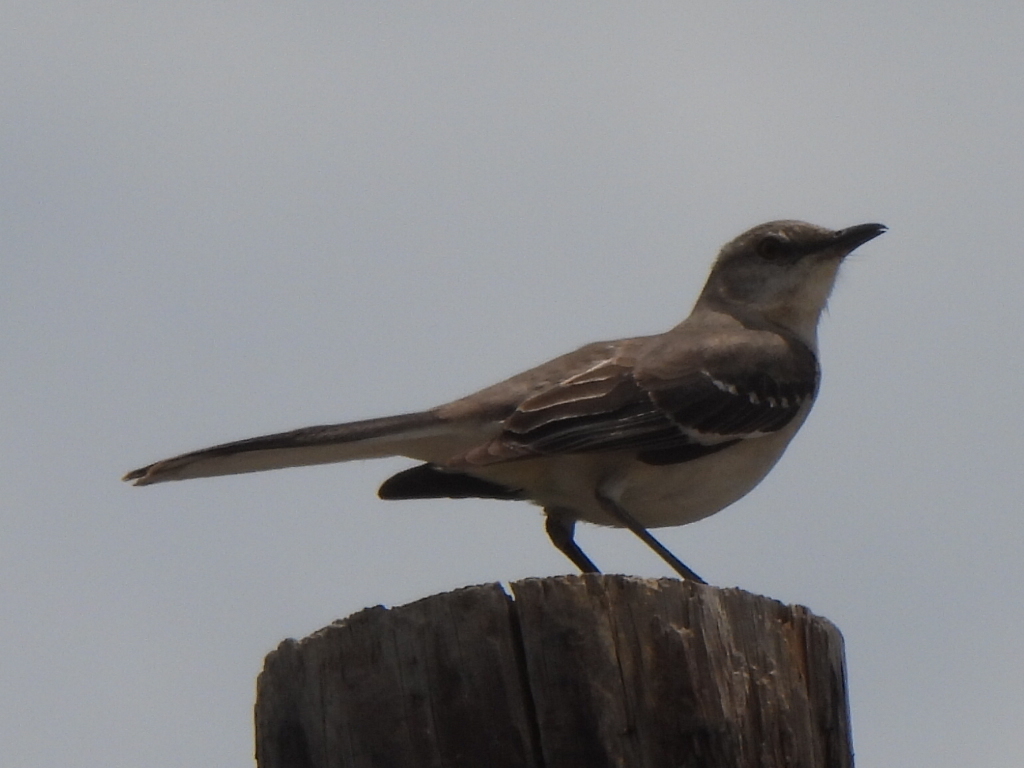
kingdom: Animalia
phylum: Chordata
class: Aves
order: Passeriformes
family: Mimidae
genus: Mimus
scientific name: Mimus polyglottos
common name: Northern mockingbird
